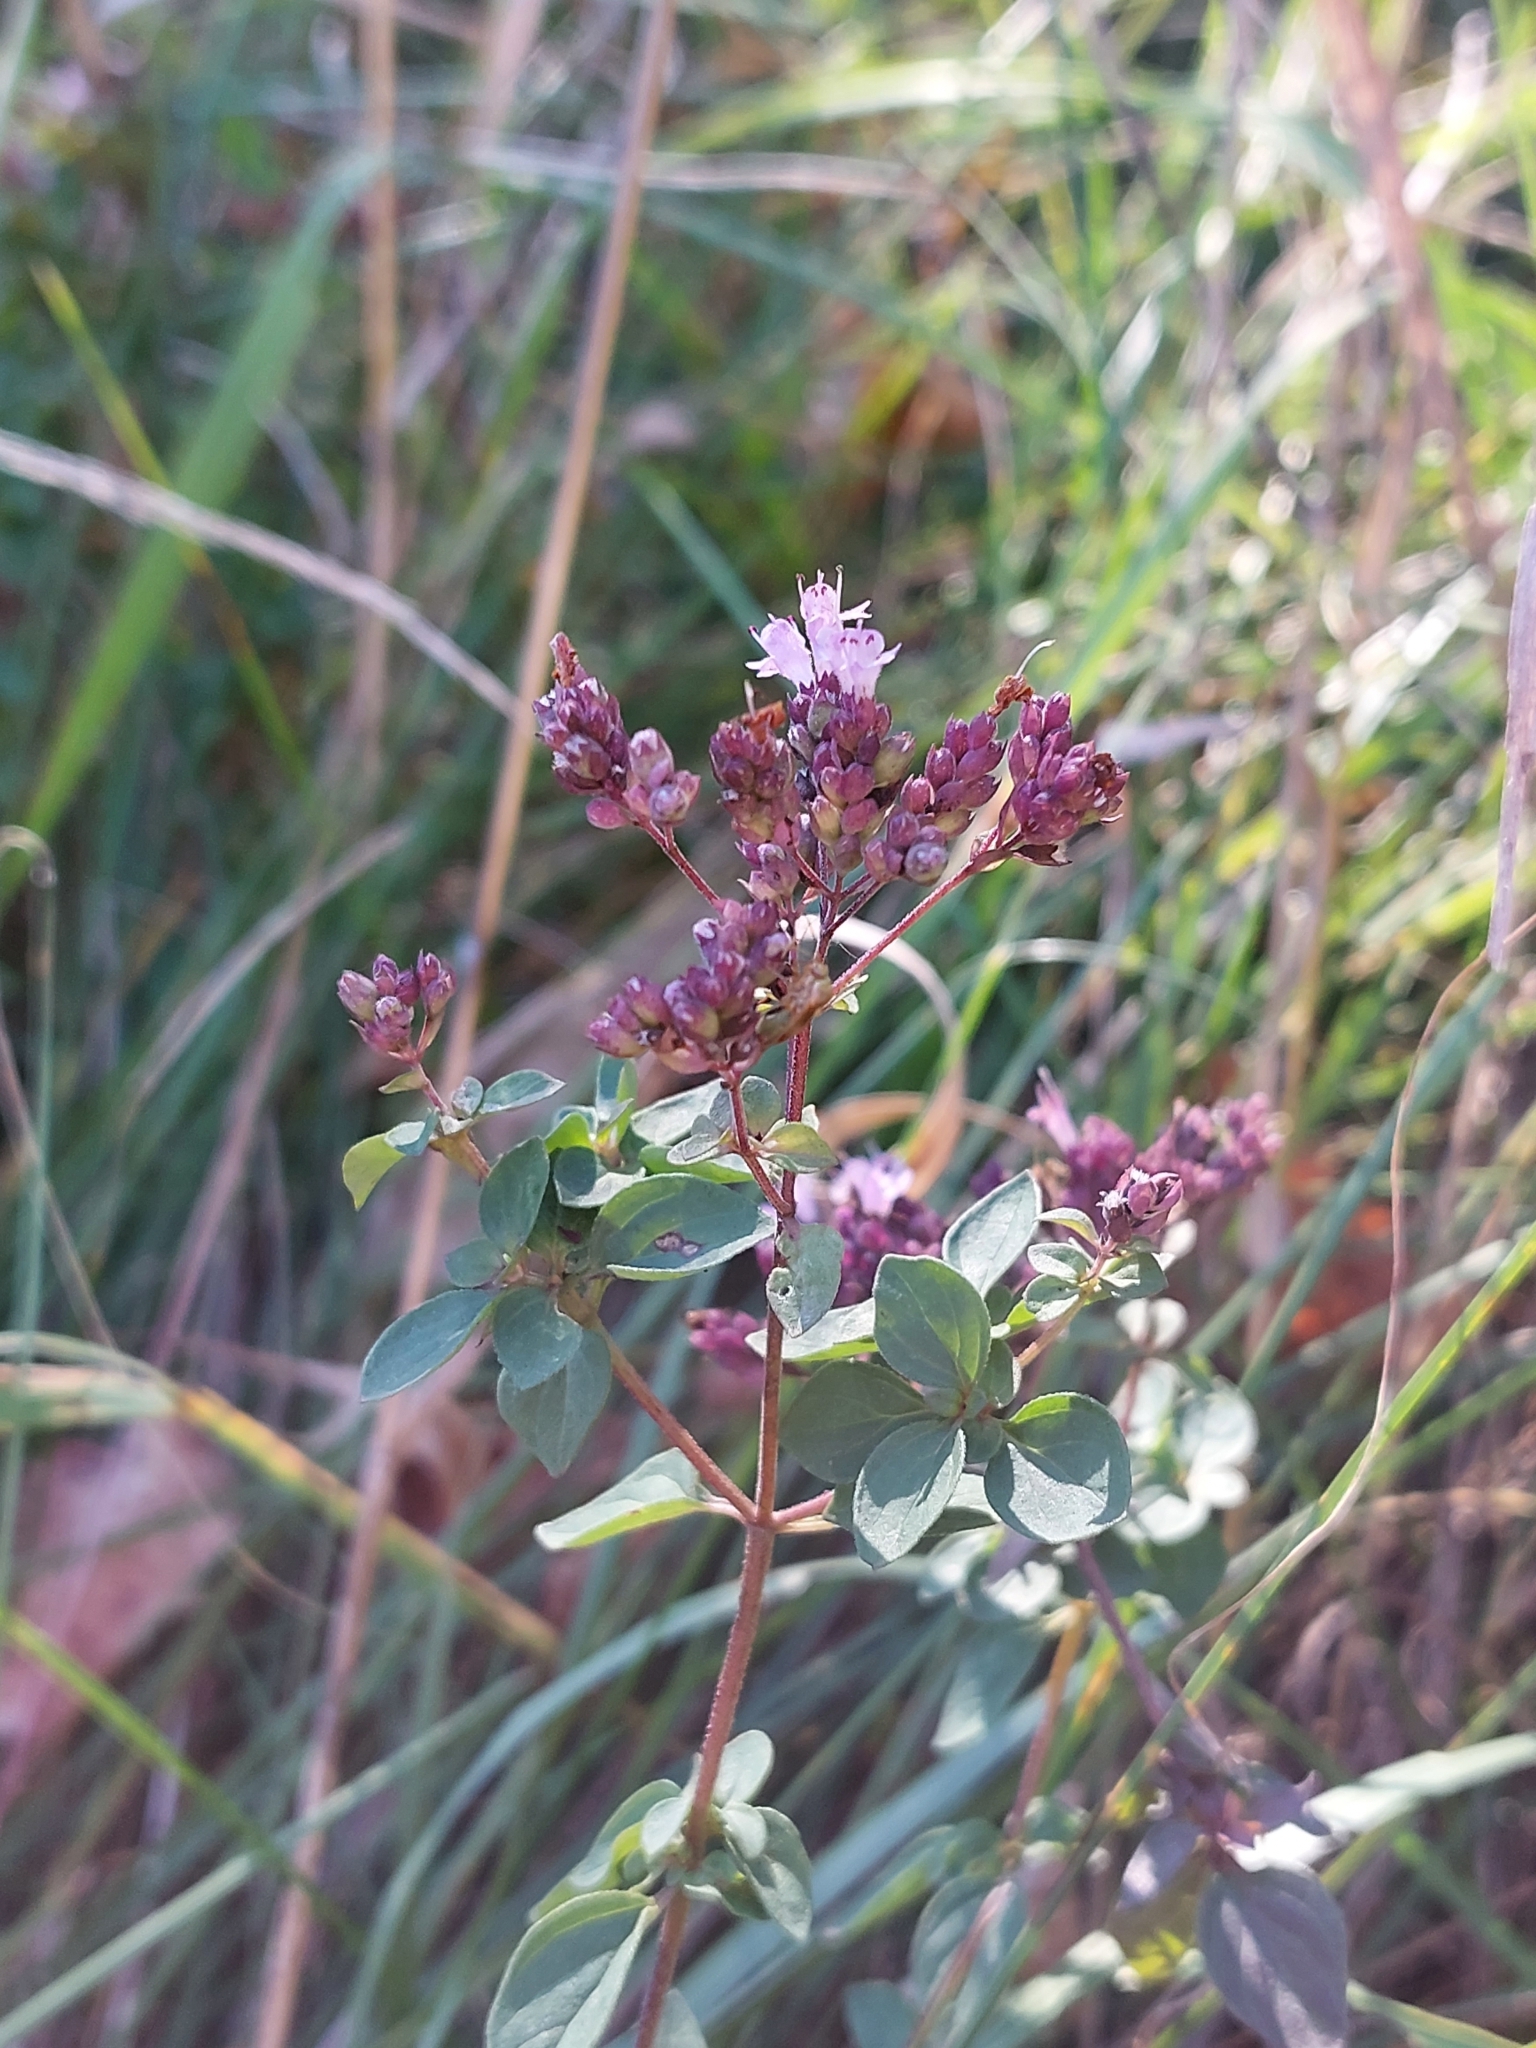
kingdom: Plantae
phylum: Tracheophyta
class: Magnoliopsida
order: Lamiales
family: Lamiaceae
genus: Origanum
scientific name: Origanum vulgare
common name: Wild marjoram
